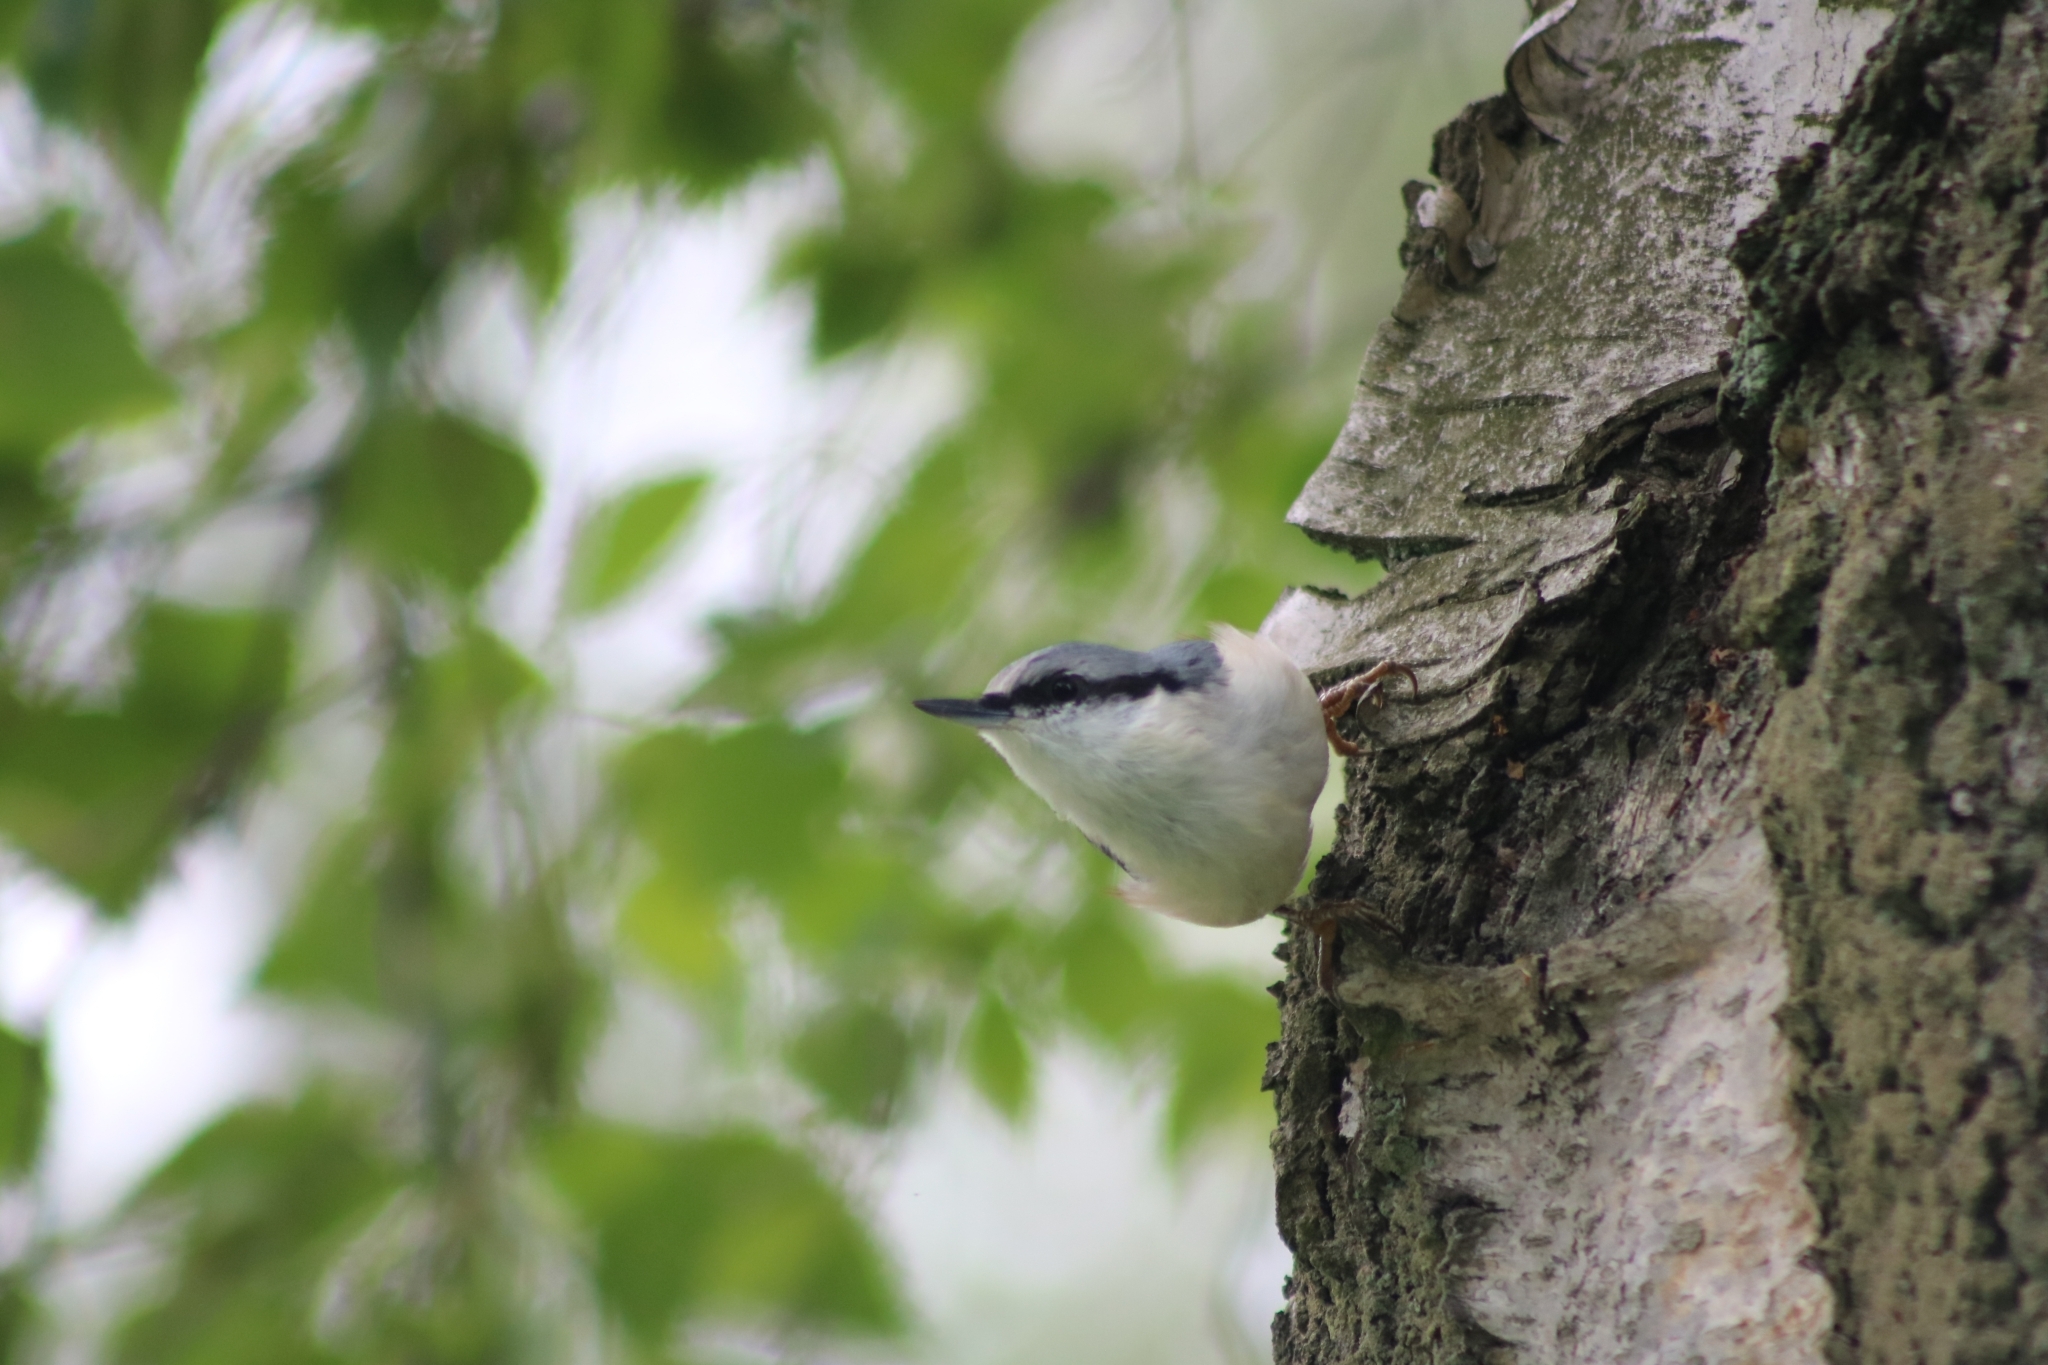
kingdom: Animalia
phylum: Chordata
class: Aves
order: Passeriformes
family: Sittidae
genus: Sitta
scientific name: Sitta europaea
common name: Eurasian nuthatch
